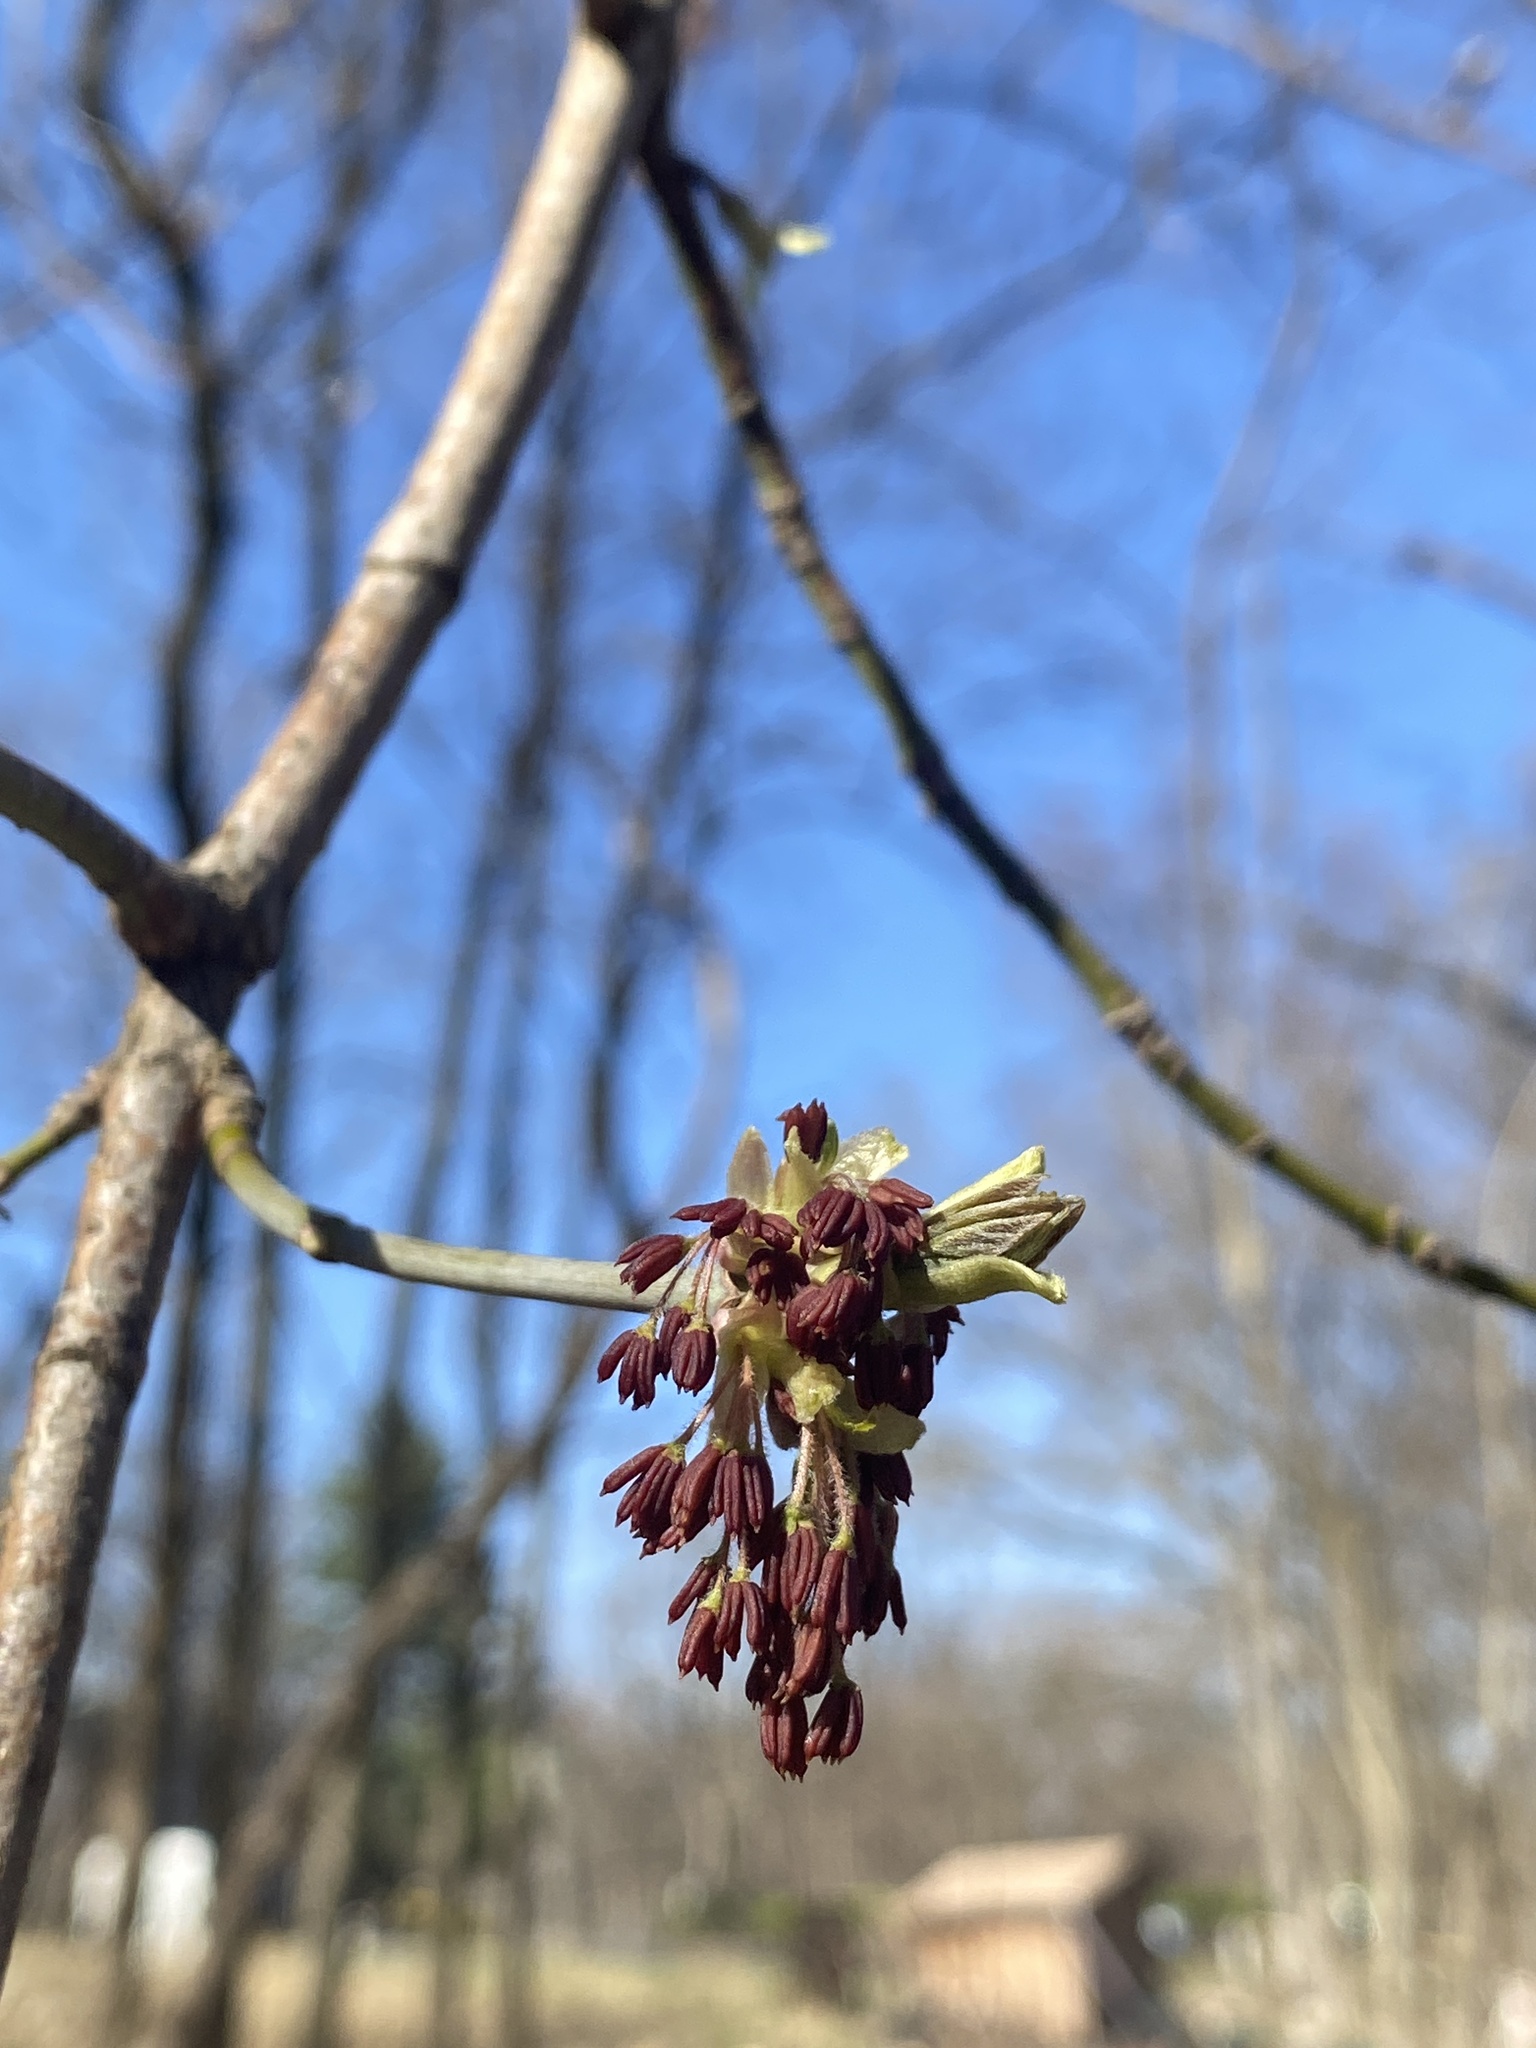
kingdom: Plantae
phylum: Tracheophyta
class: Magnoliopsida
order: Sapindales
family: Sapindaceae
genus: Acer
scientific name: Acer negundo
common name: Ashleaf maple
